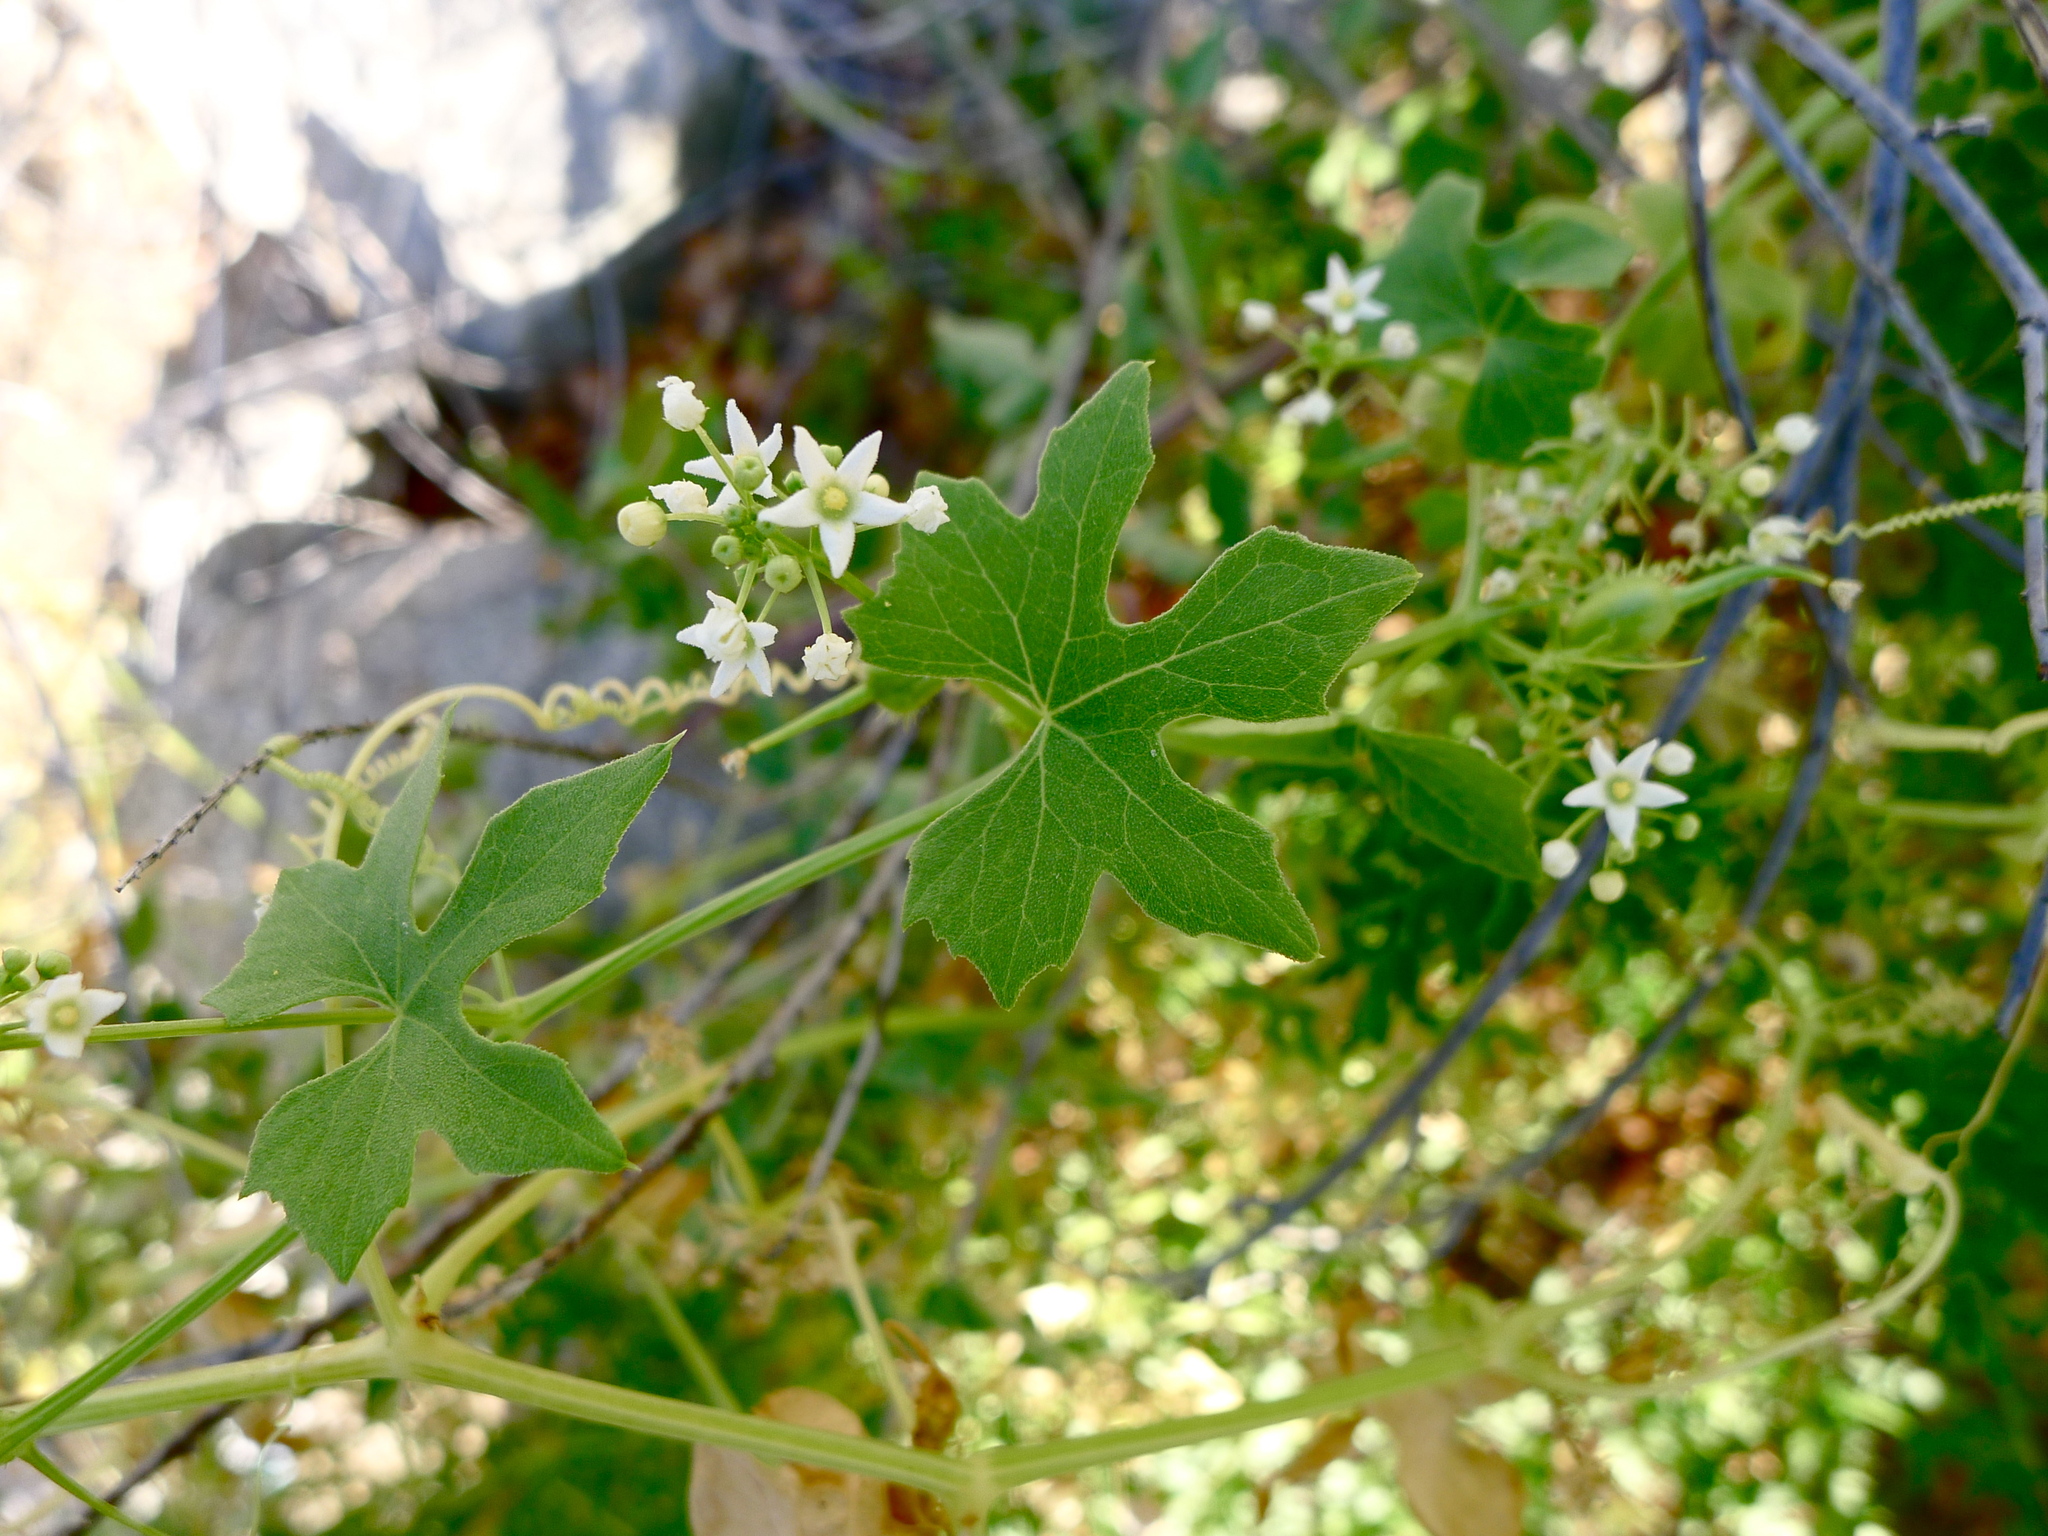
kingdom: Plantae
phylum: Tracheophyta
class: Magnoliopsida
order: Cucurbitales
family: Cucurbitaceae
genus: Echinopepon
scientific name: Echinopepon insularis
